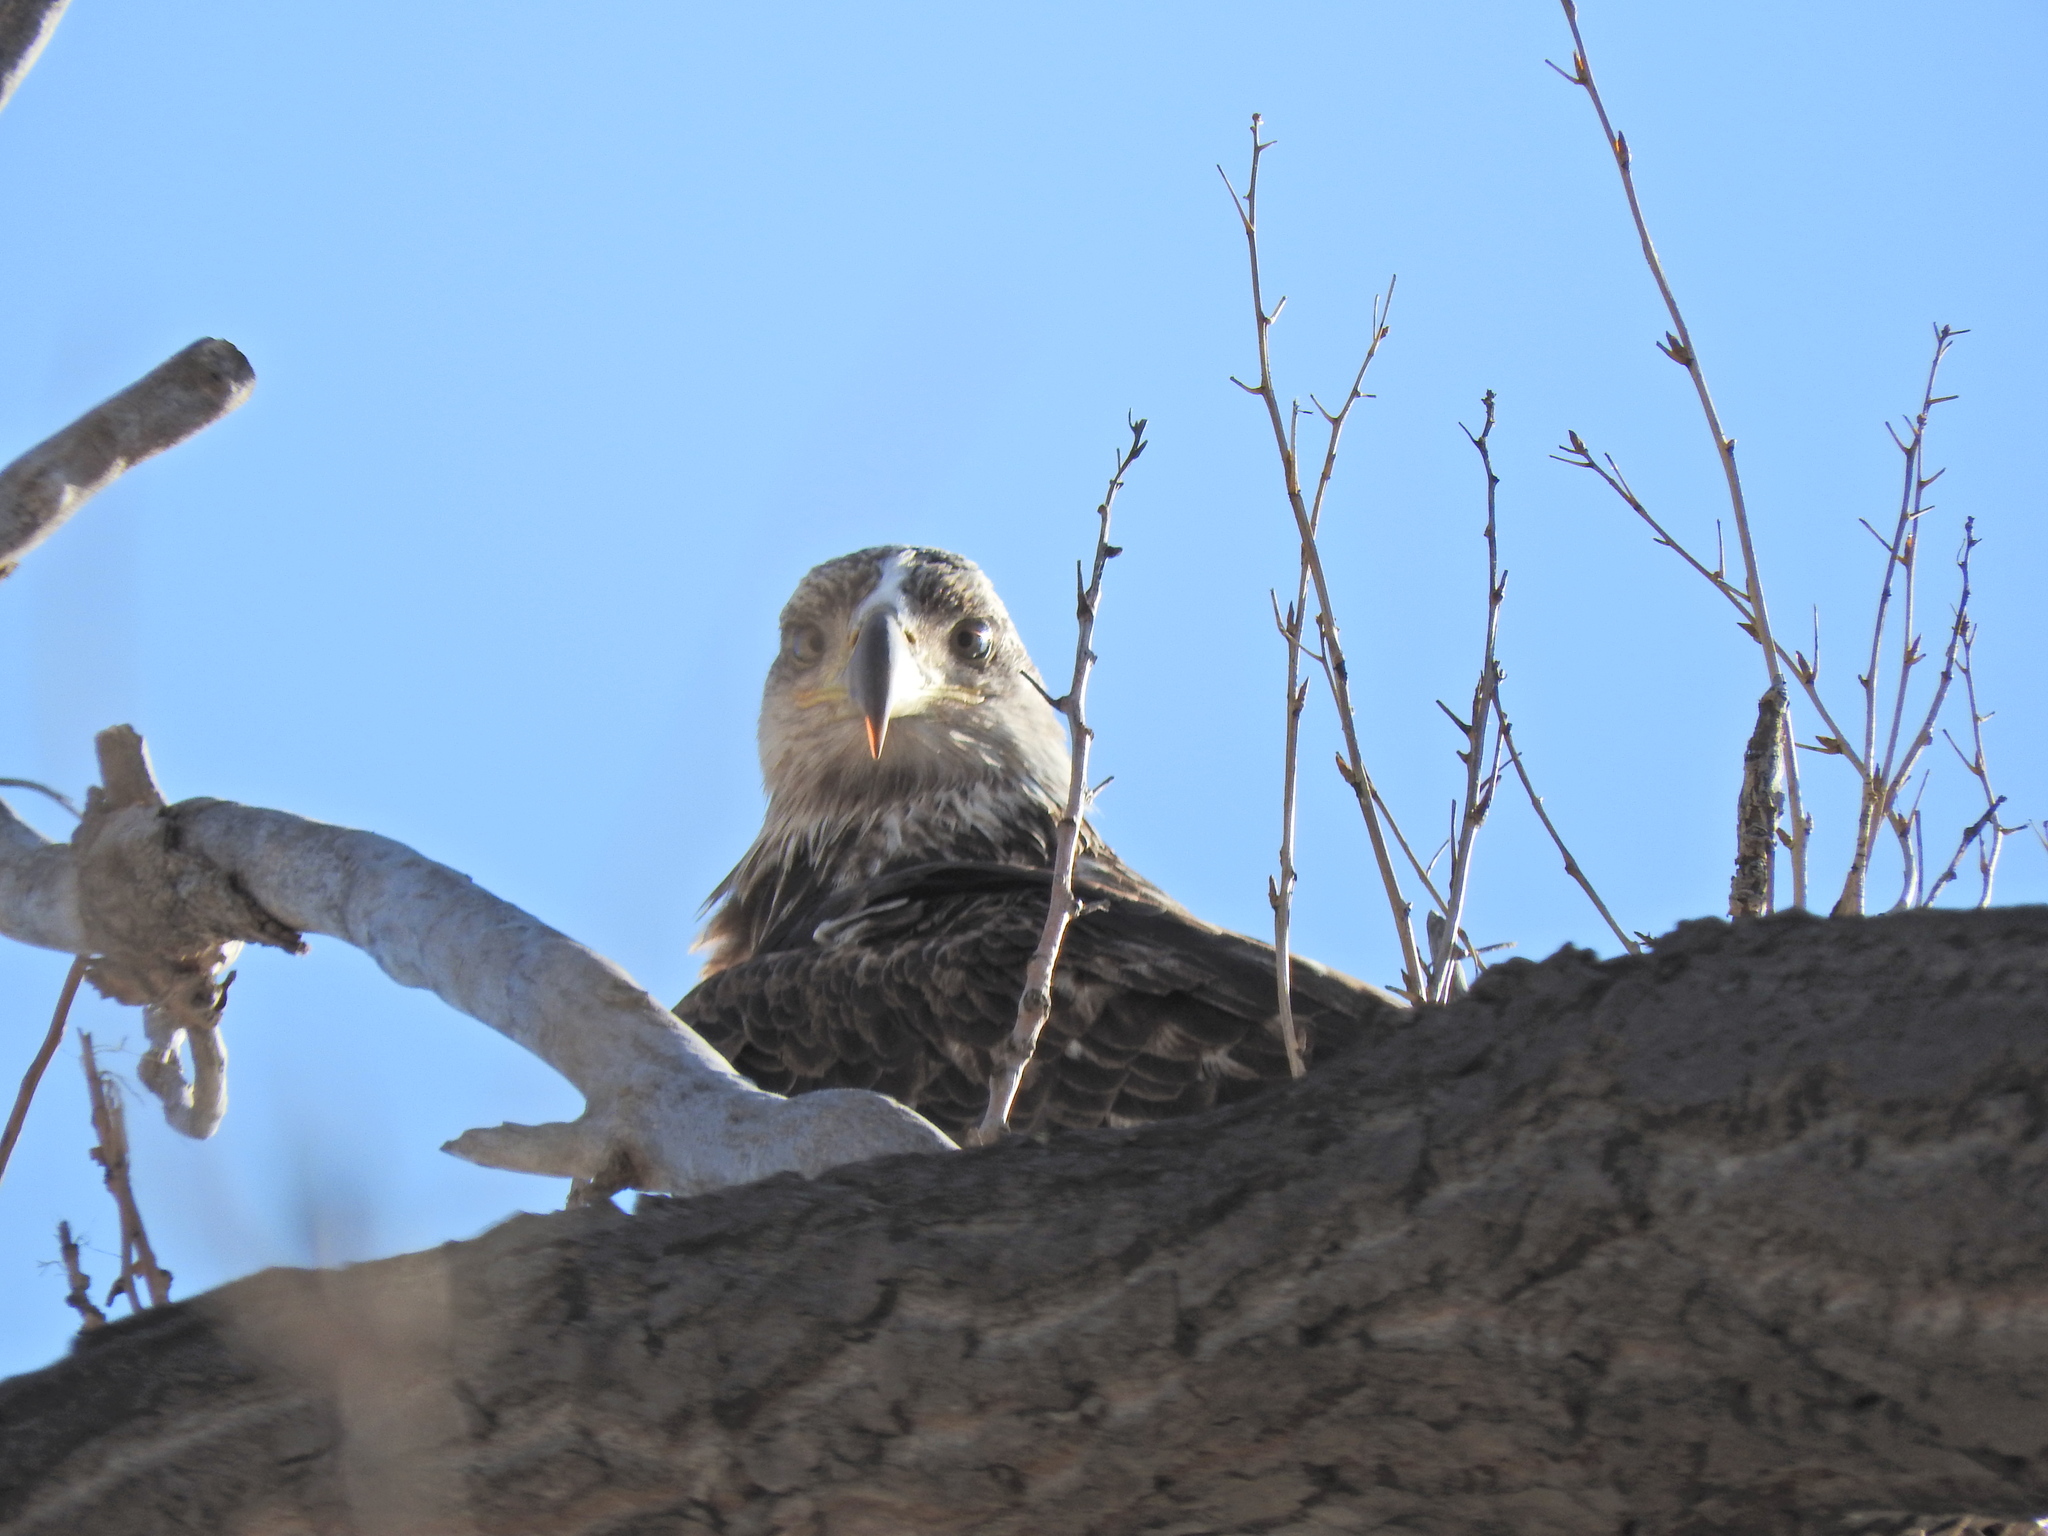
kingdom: Animalia
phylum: Chordata
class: Aves
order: Accipitriformes
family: Accipitridae
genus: Haliaeetus
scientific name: Haliaeetus leucocephalus
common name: Bald eagle
